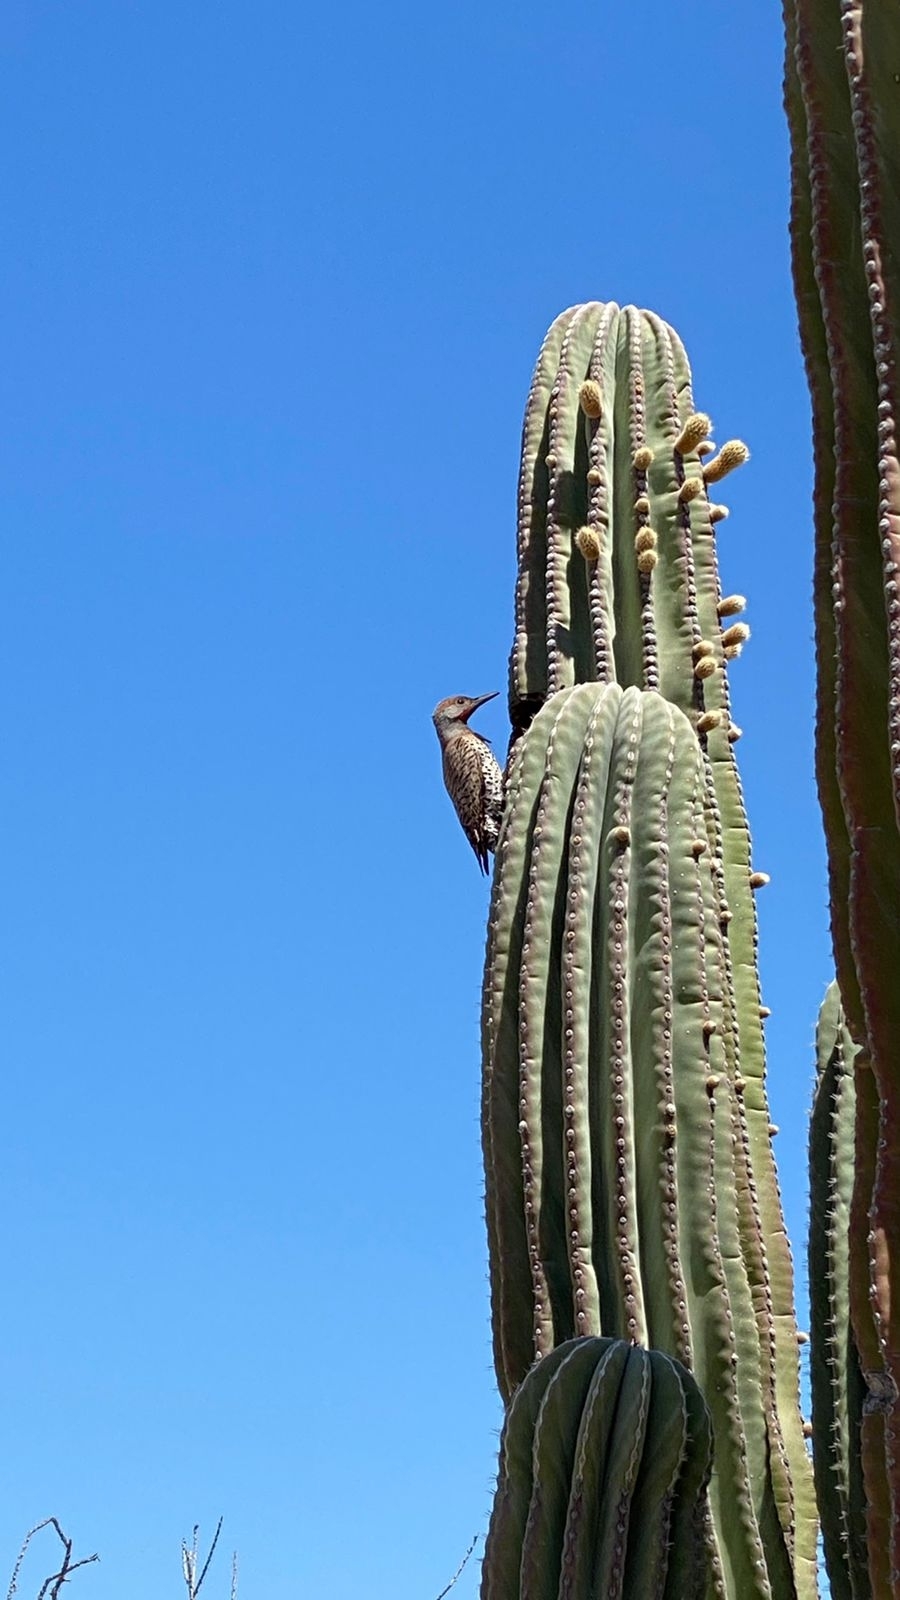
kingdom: Animalia
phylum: Chordata
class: Aves
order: Piciformes
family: Picidae
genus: Colaptes
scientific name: Colaptes chrysoides
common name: Gilded flicker
